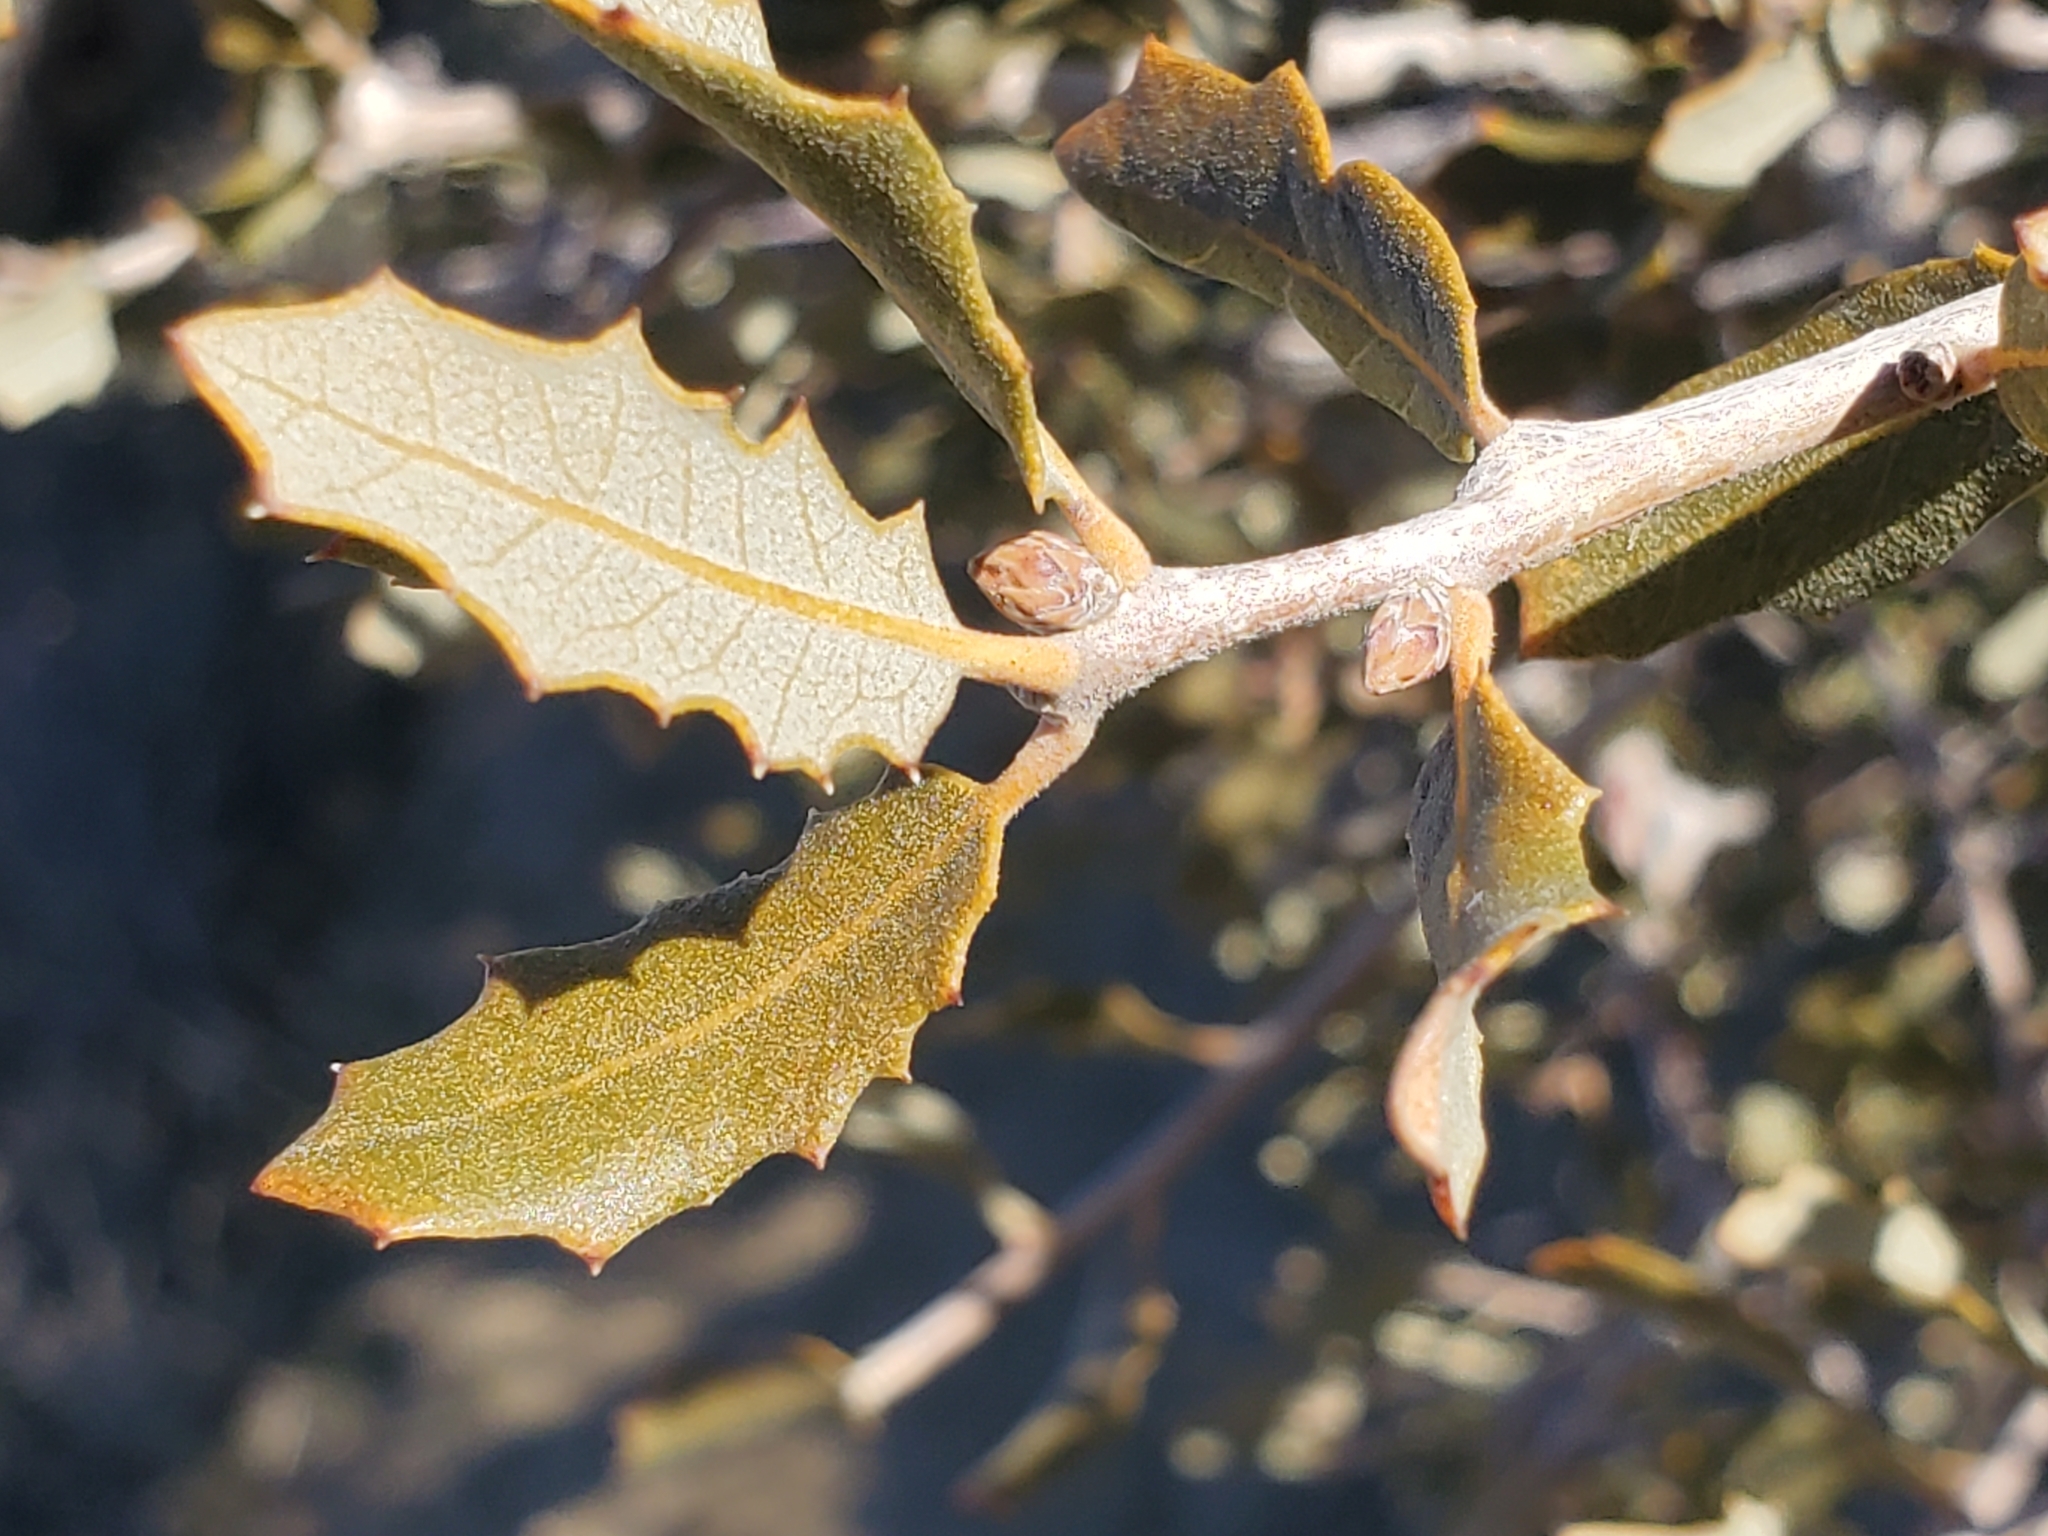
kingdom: Plantae
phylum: Tracheophyta
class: Magnoliopsida
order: Fagales
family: Fagaceae
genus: Quercus
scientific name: Quercus cornelius-mulleri
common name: Muller oak
